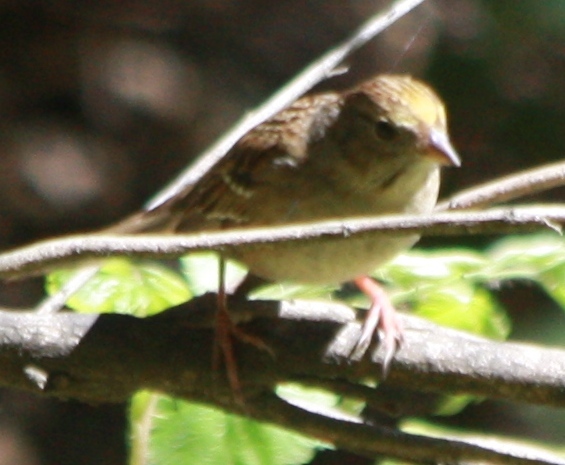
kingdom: Animalia
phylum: Chordata
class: Aves
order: Passeriformes
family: Passerellidae
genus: Zonotrichia
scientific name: Zonotrichia atricapilla
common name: Golden-crowned sparrow
